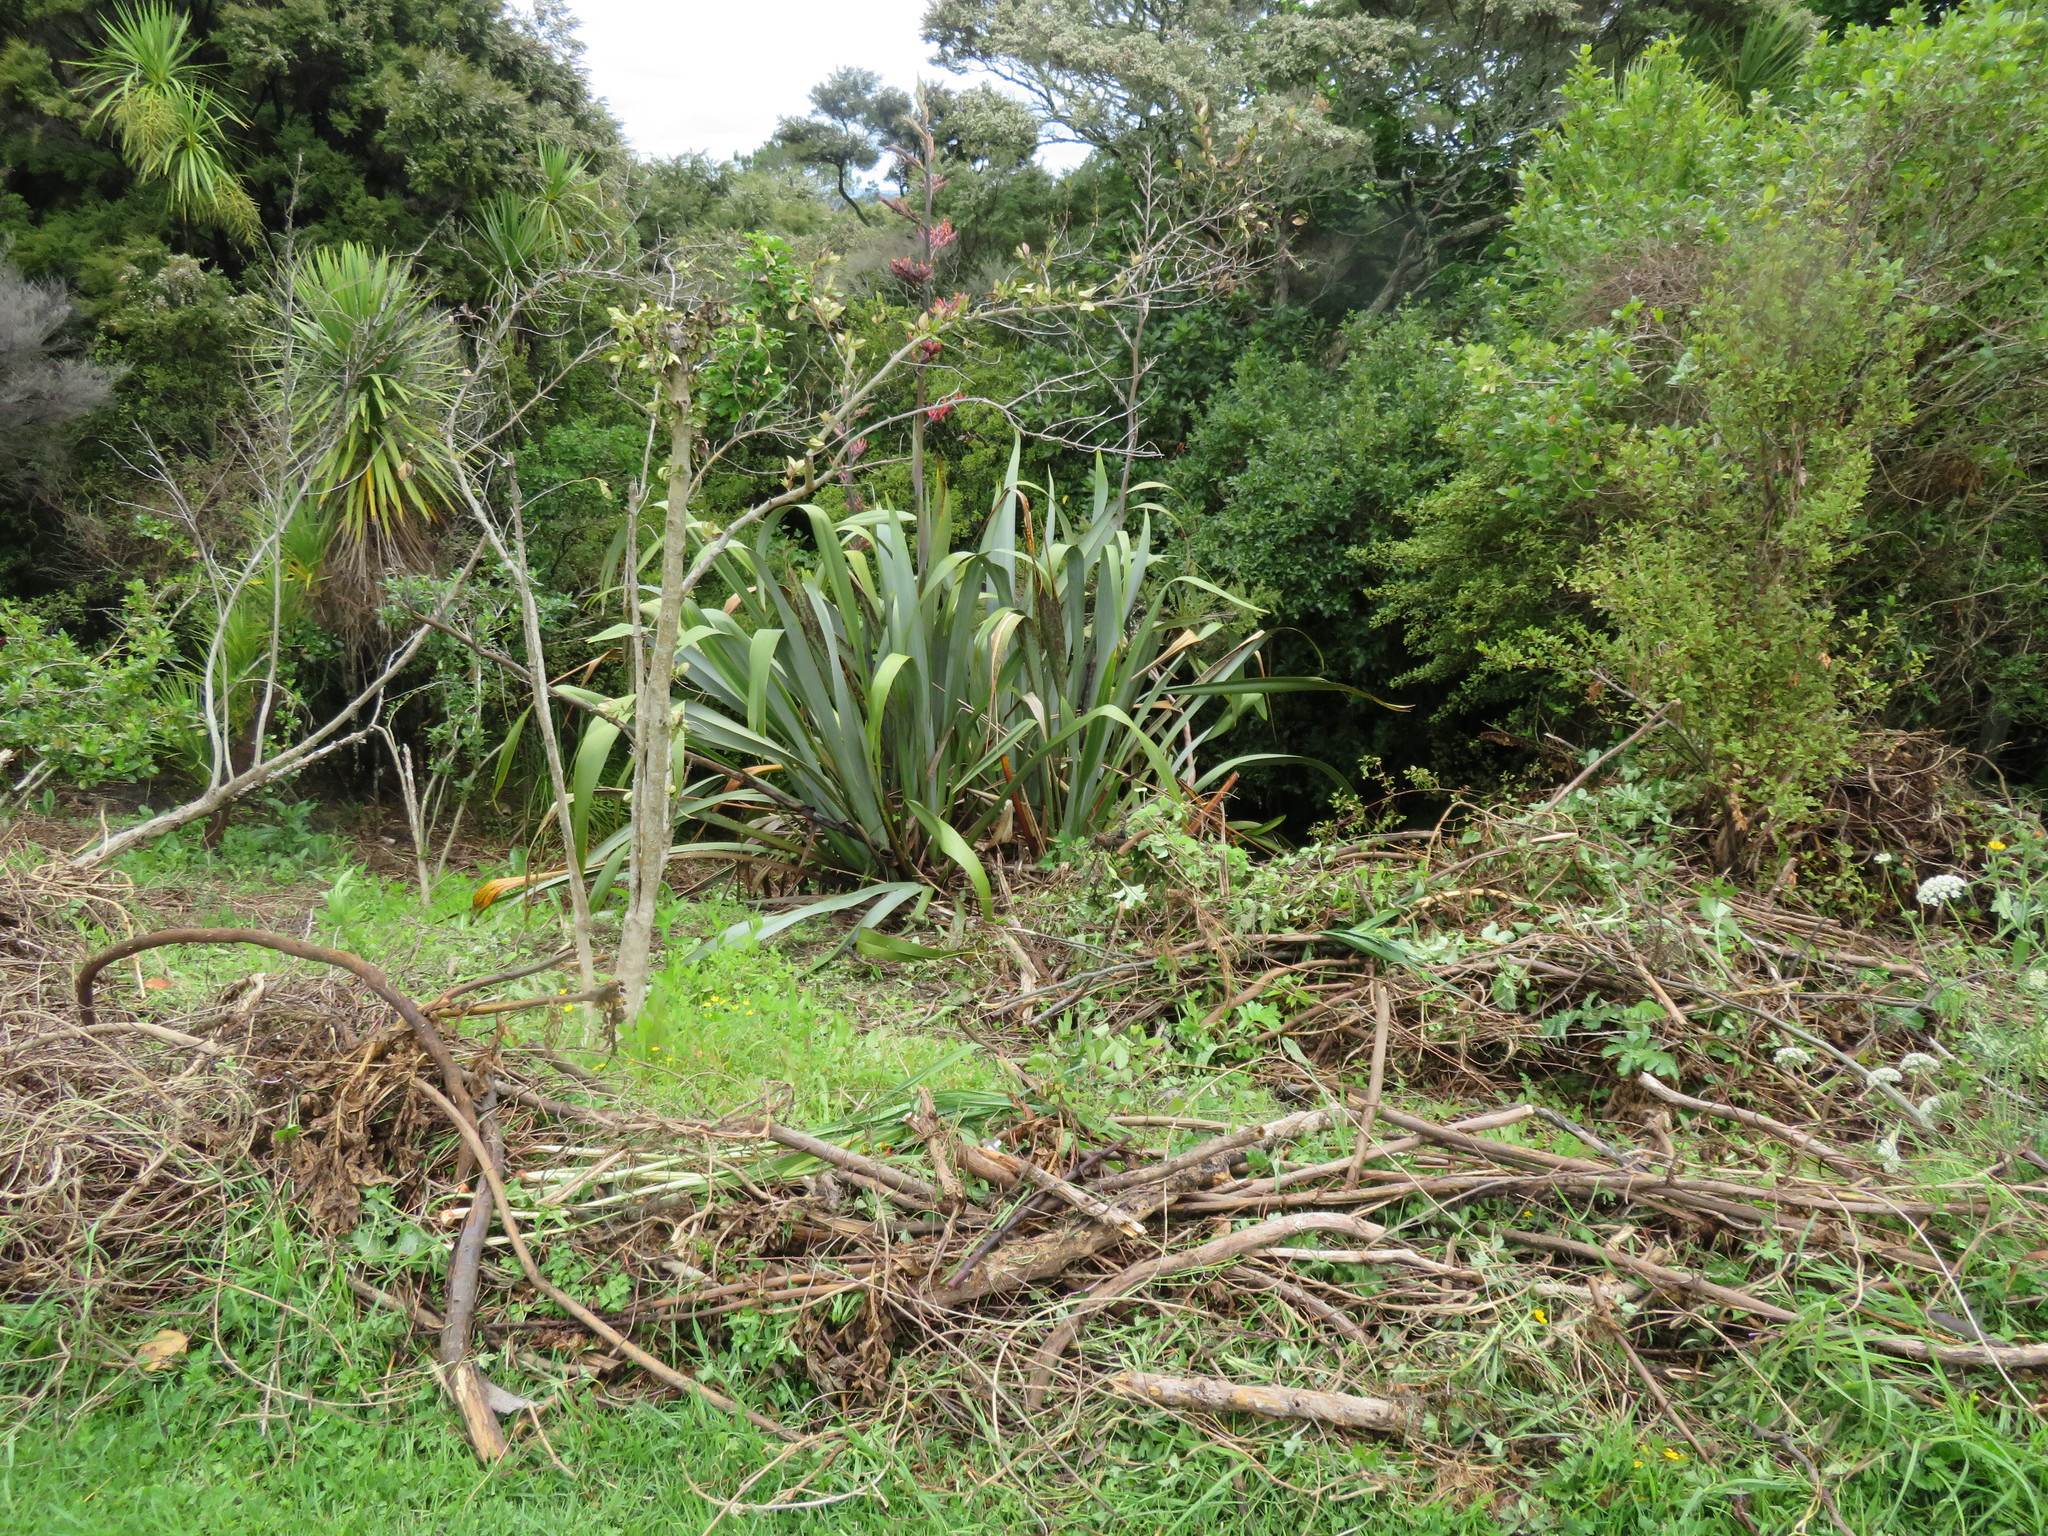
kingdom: Plantae
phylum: Tracheophyta
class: Magnoliopsida
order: Gentianales
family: Rubiaceae
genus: Coprosma
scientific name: Coprosma robusta
